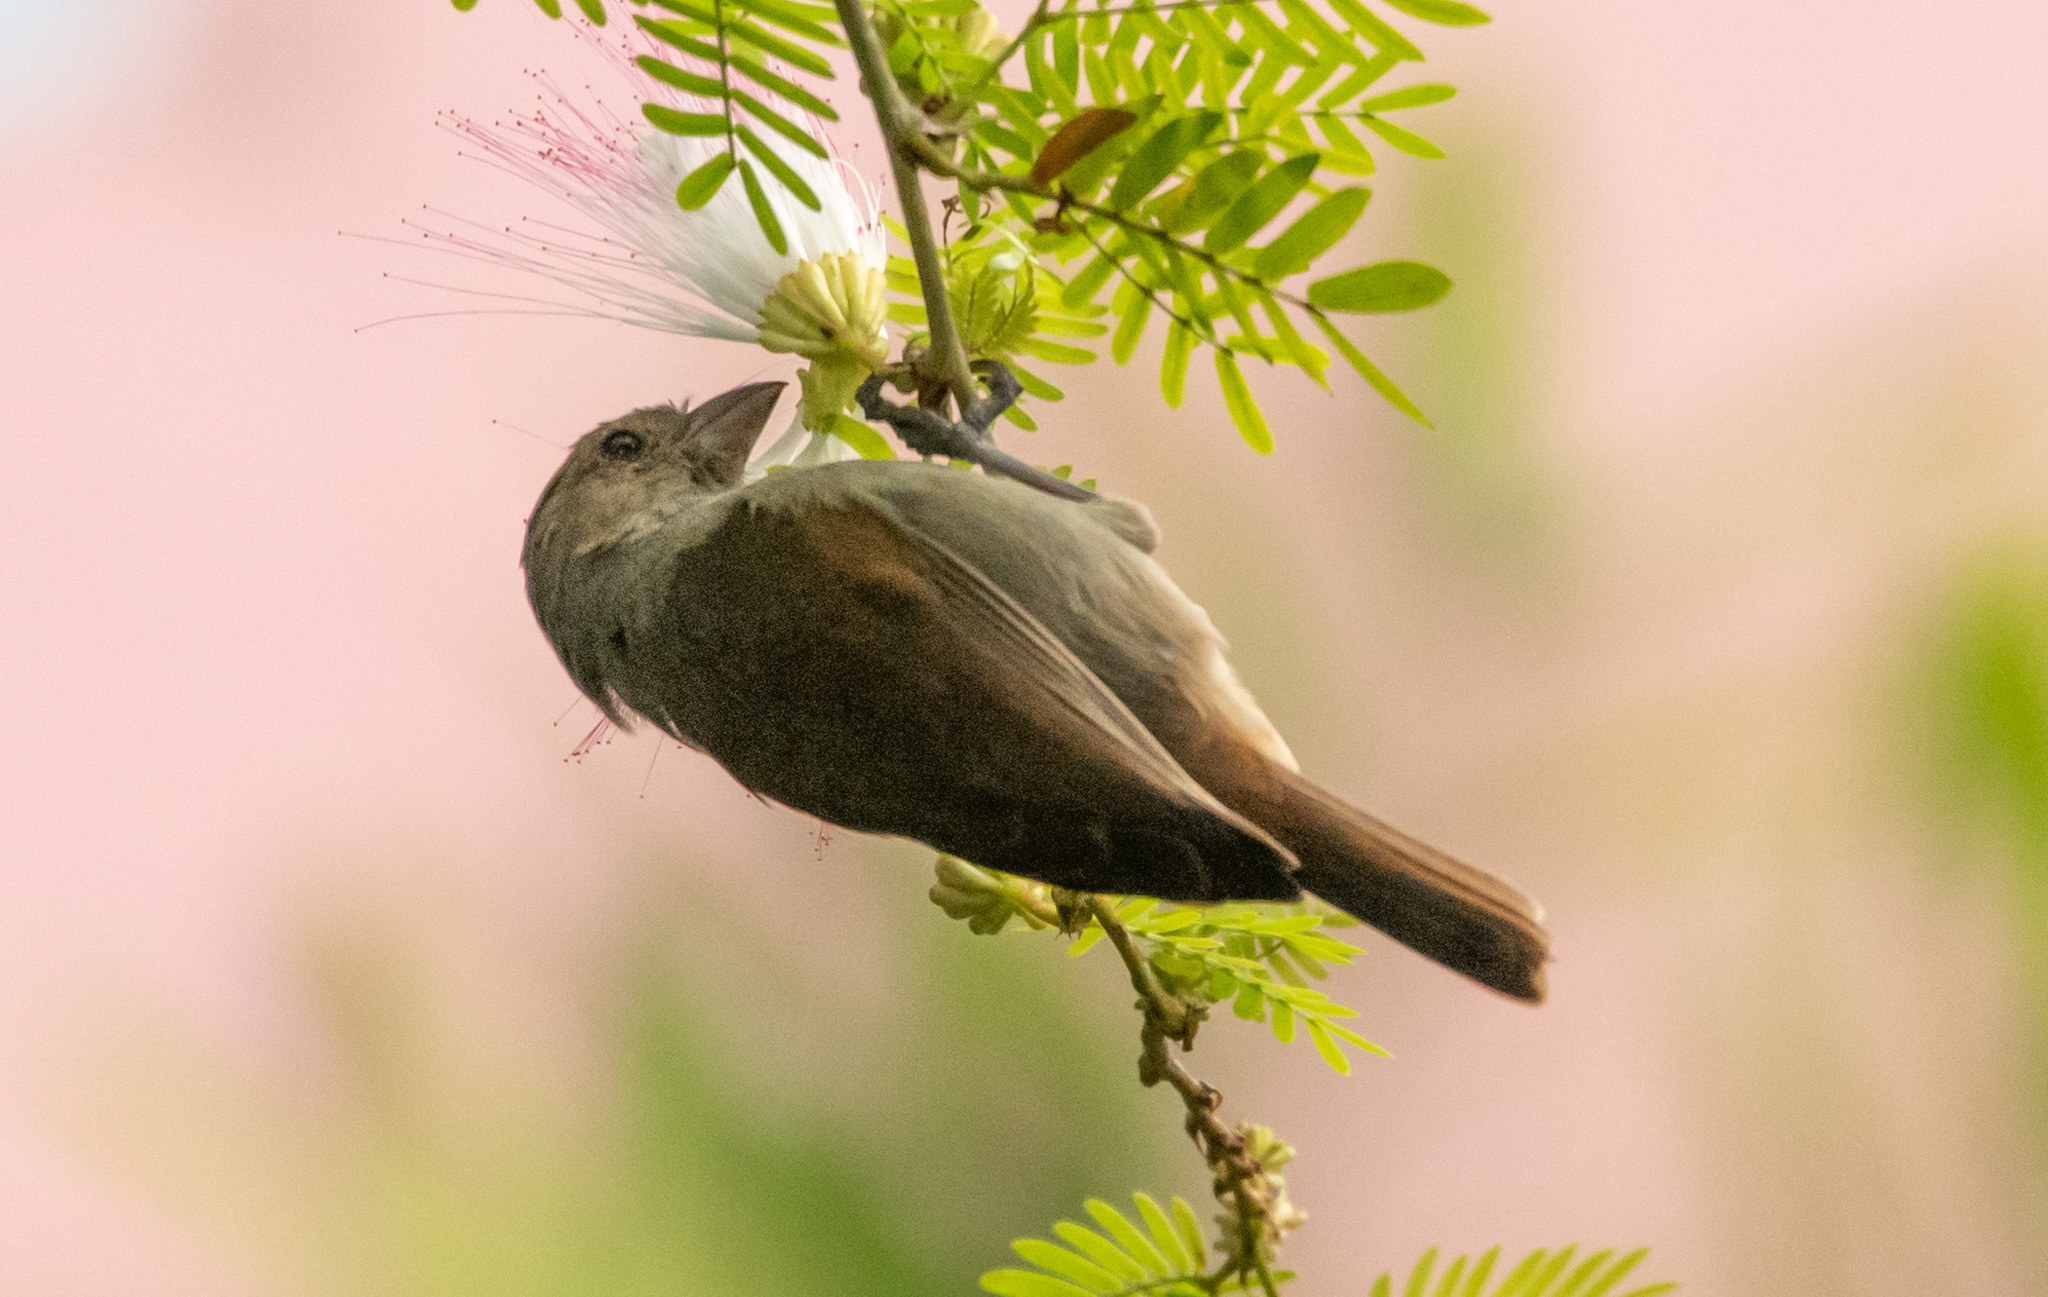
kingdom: Animalia
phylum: Chordata
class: Aves
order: Passeriformes
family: Thraupidae
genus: Loxigilla
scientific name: Loxigilla barbadensis
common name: Barbados bullfinch
